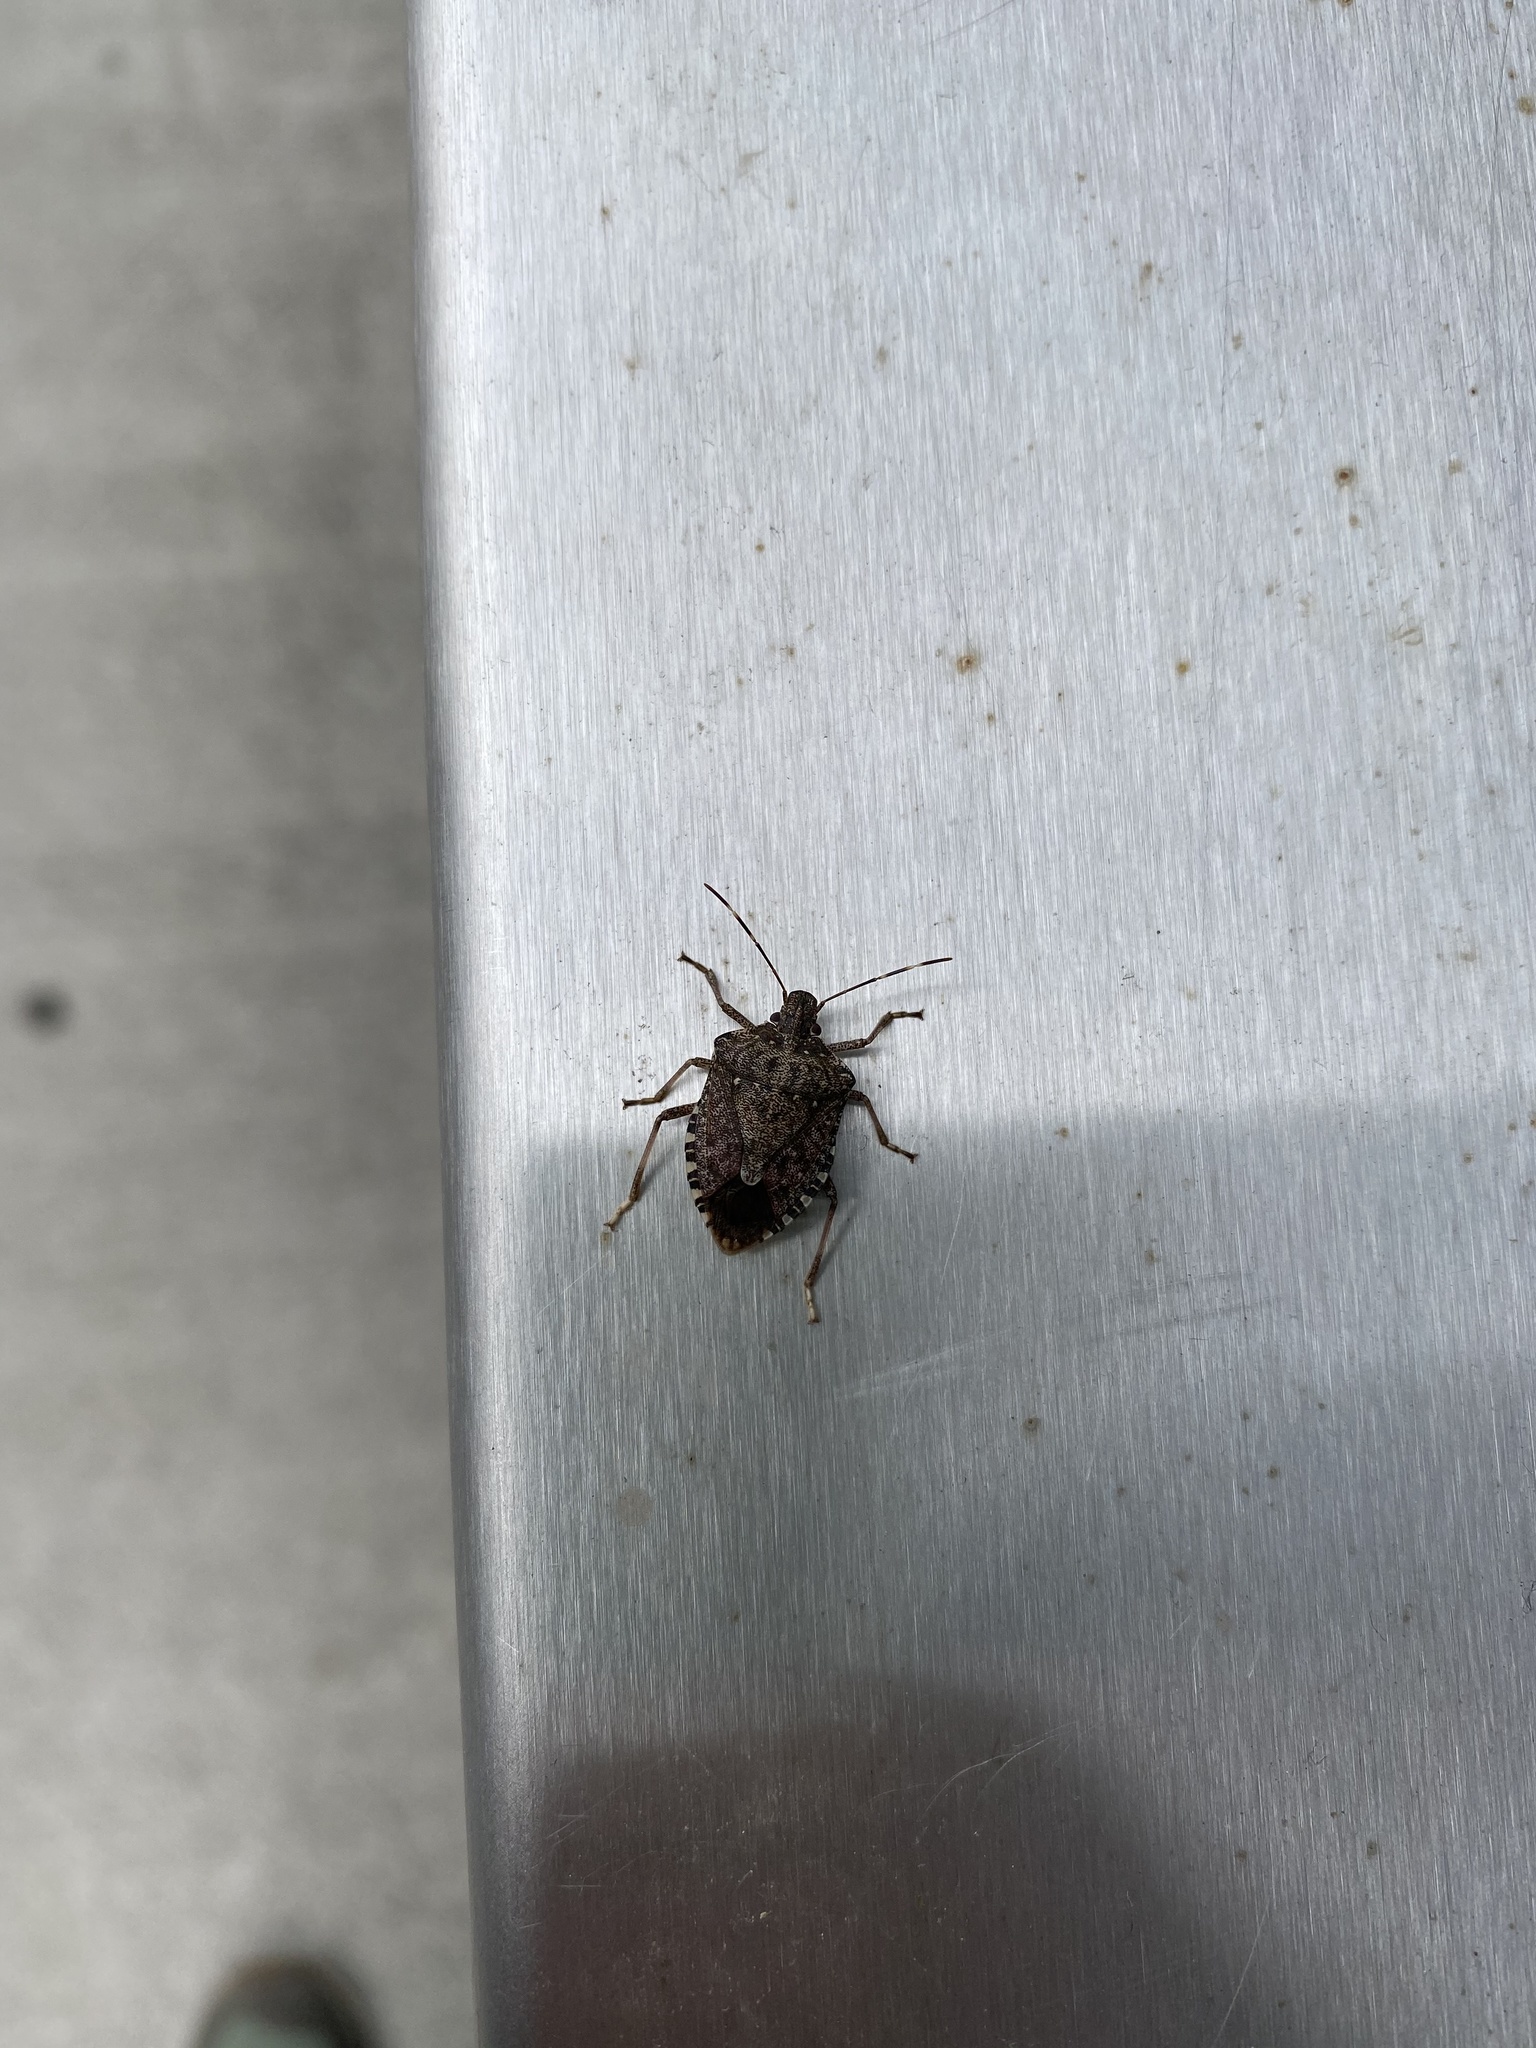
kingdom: Animalia
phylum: Arthropoda
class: Insecta
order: Hemiptera
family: Pentatomidae
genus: Halyomorpha
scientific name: Halyomorpha halys
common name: Brown marmorated stink bug
